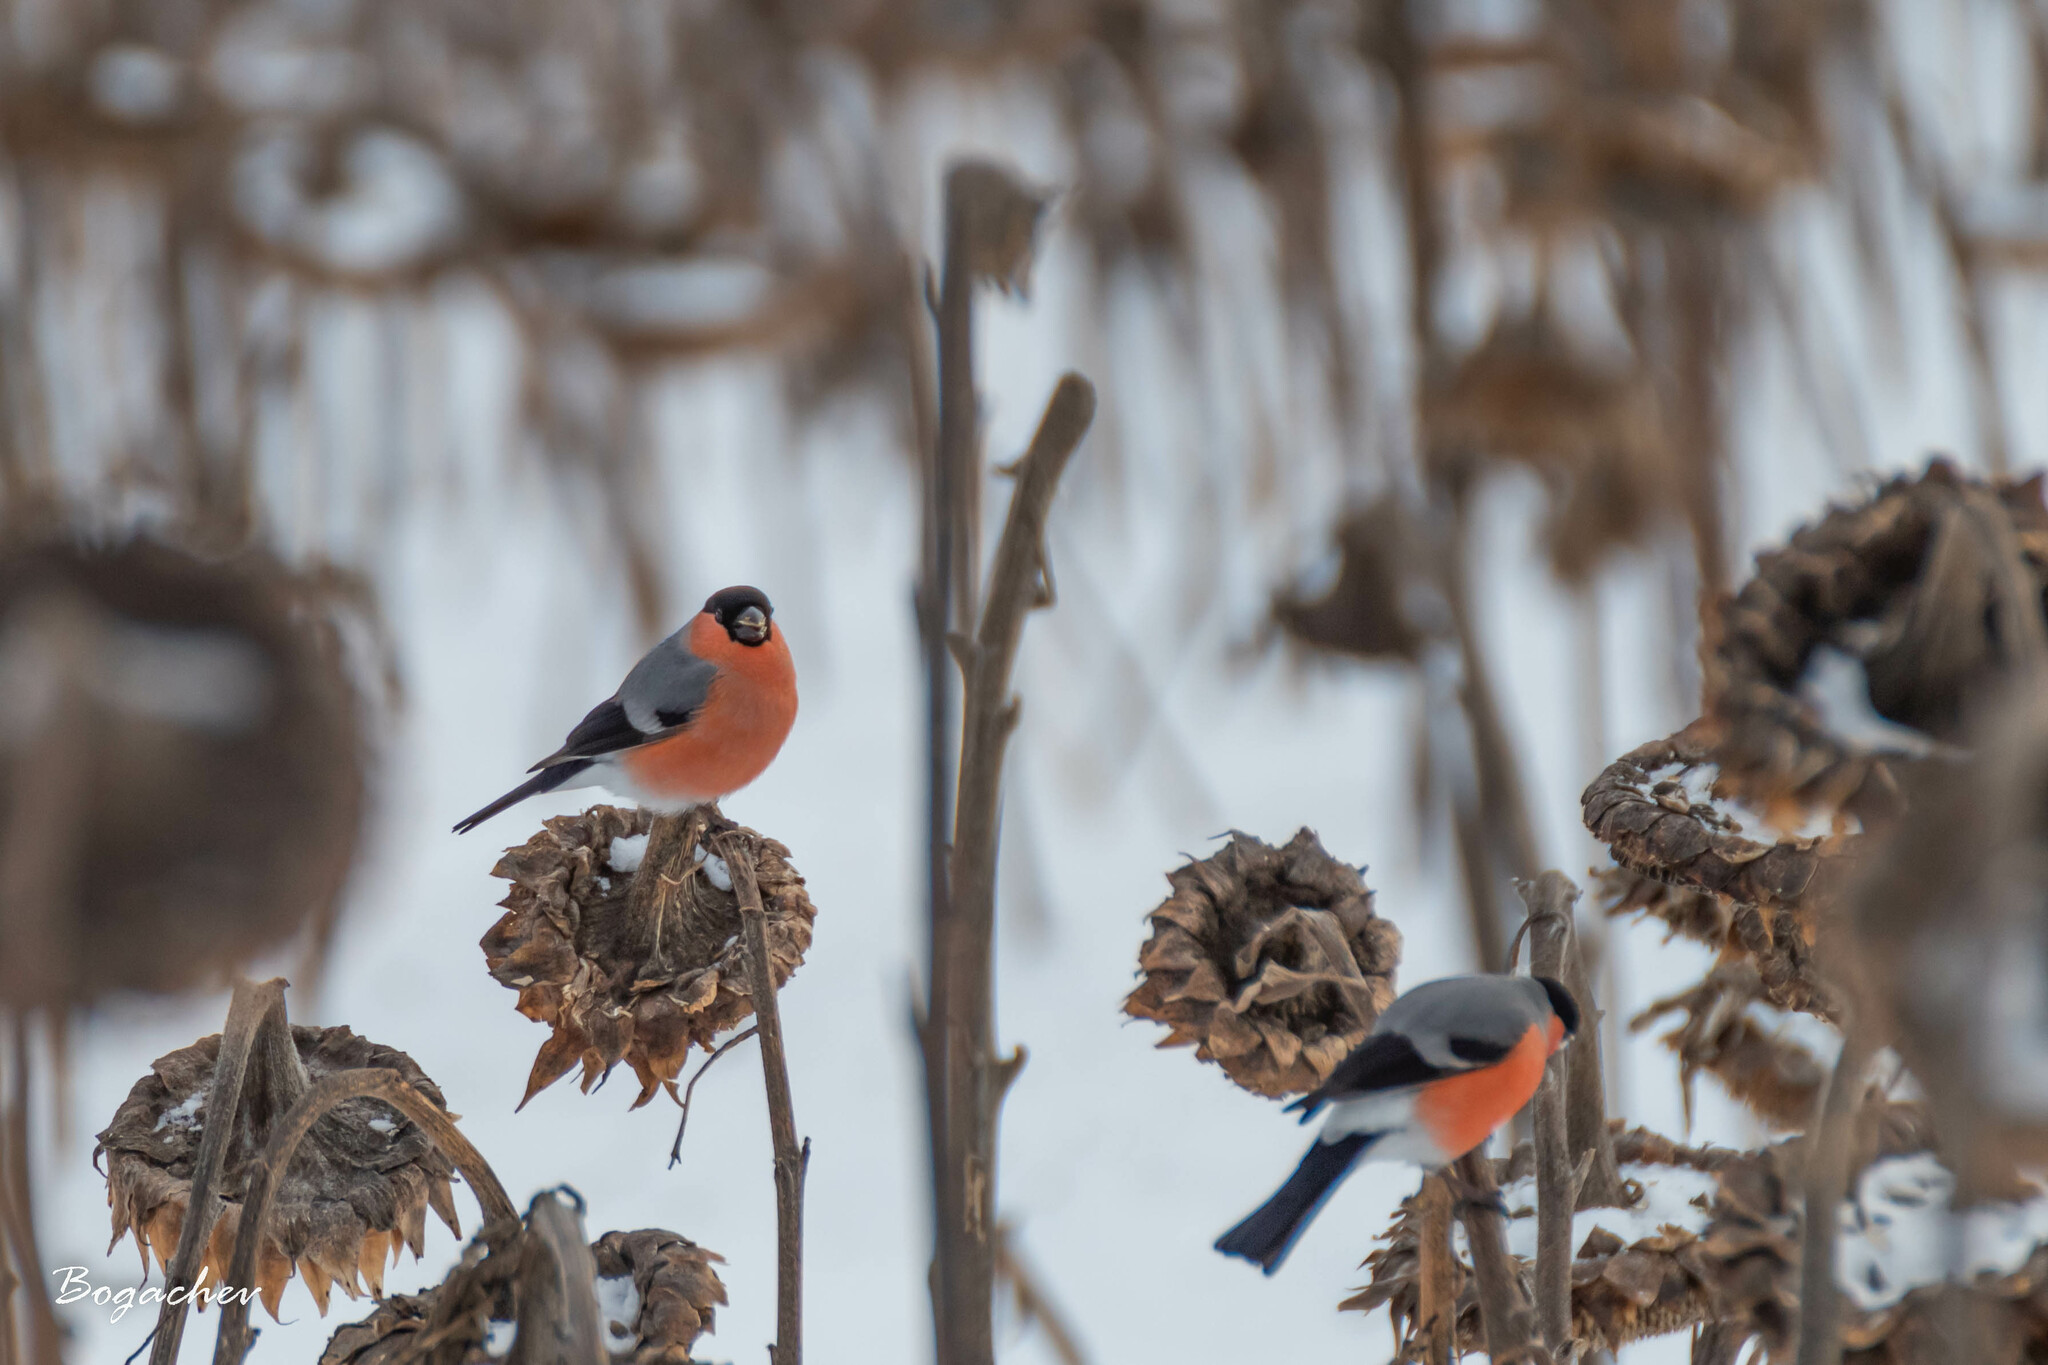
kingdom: Animalia
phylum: Chordata
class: Aves
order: Passeriformes
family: Fringillidae
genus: Pyrrhula
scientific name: Pyrrhula pyrrhula
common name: Eurasian bullfinch
